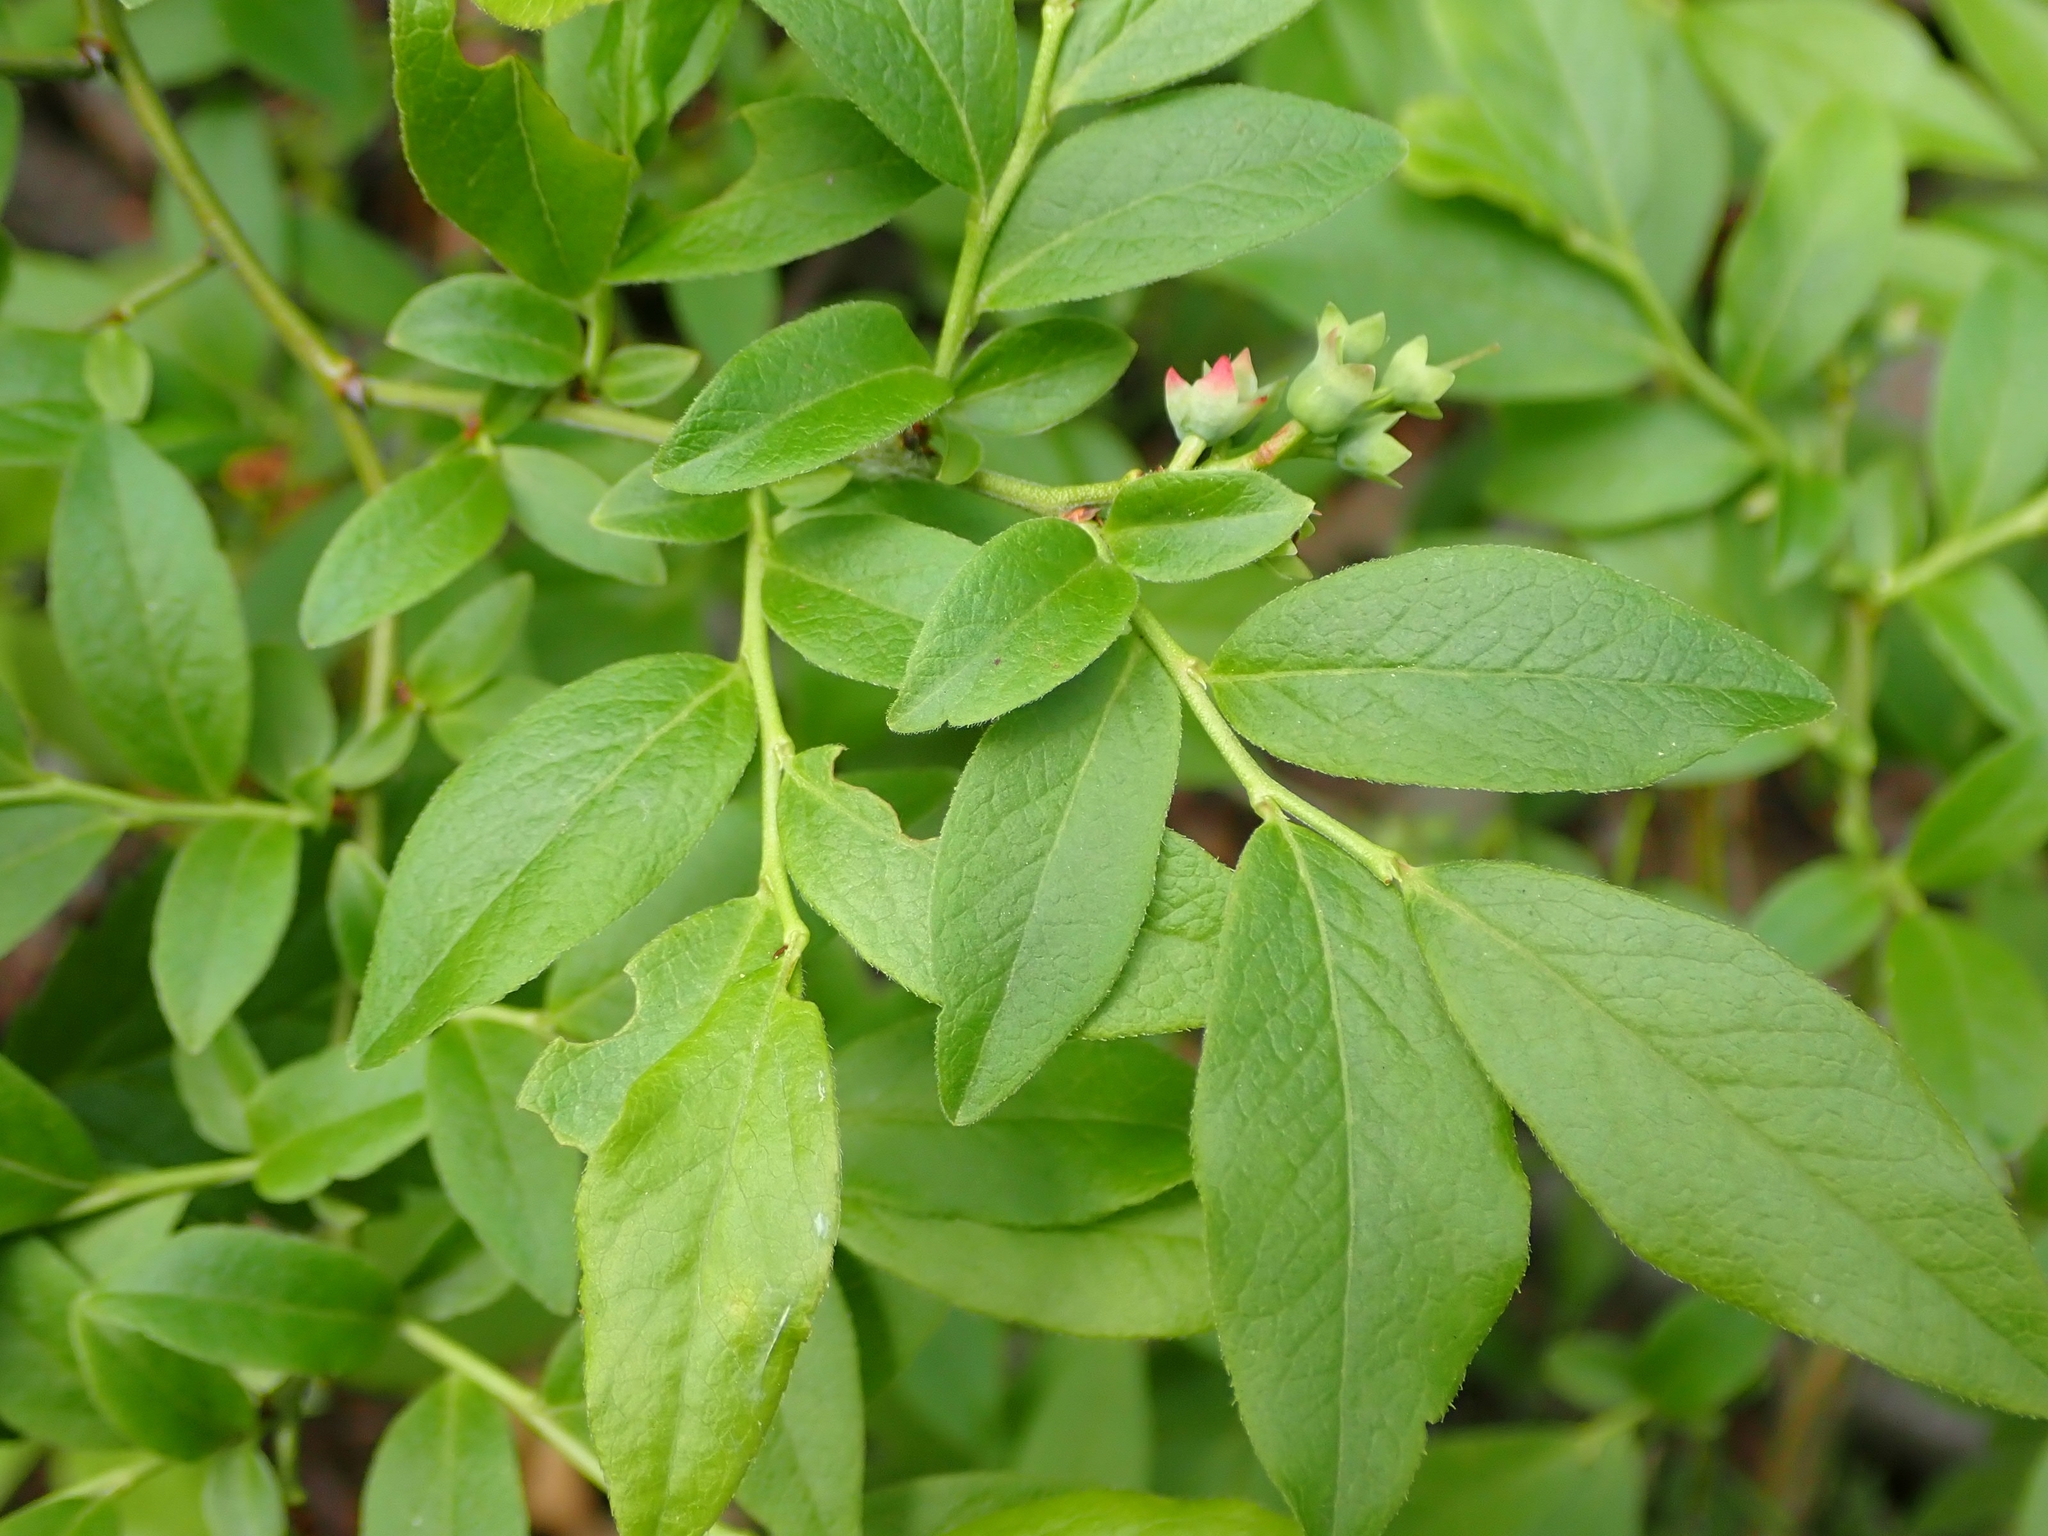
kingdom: Plantae
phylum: Tracheophyta
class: Magnoliopsida
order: Ericales
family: Ericaceae
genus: Vaccinium
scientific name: Vaccinium angustifolium
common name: Early lowbush blueberry
